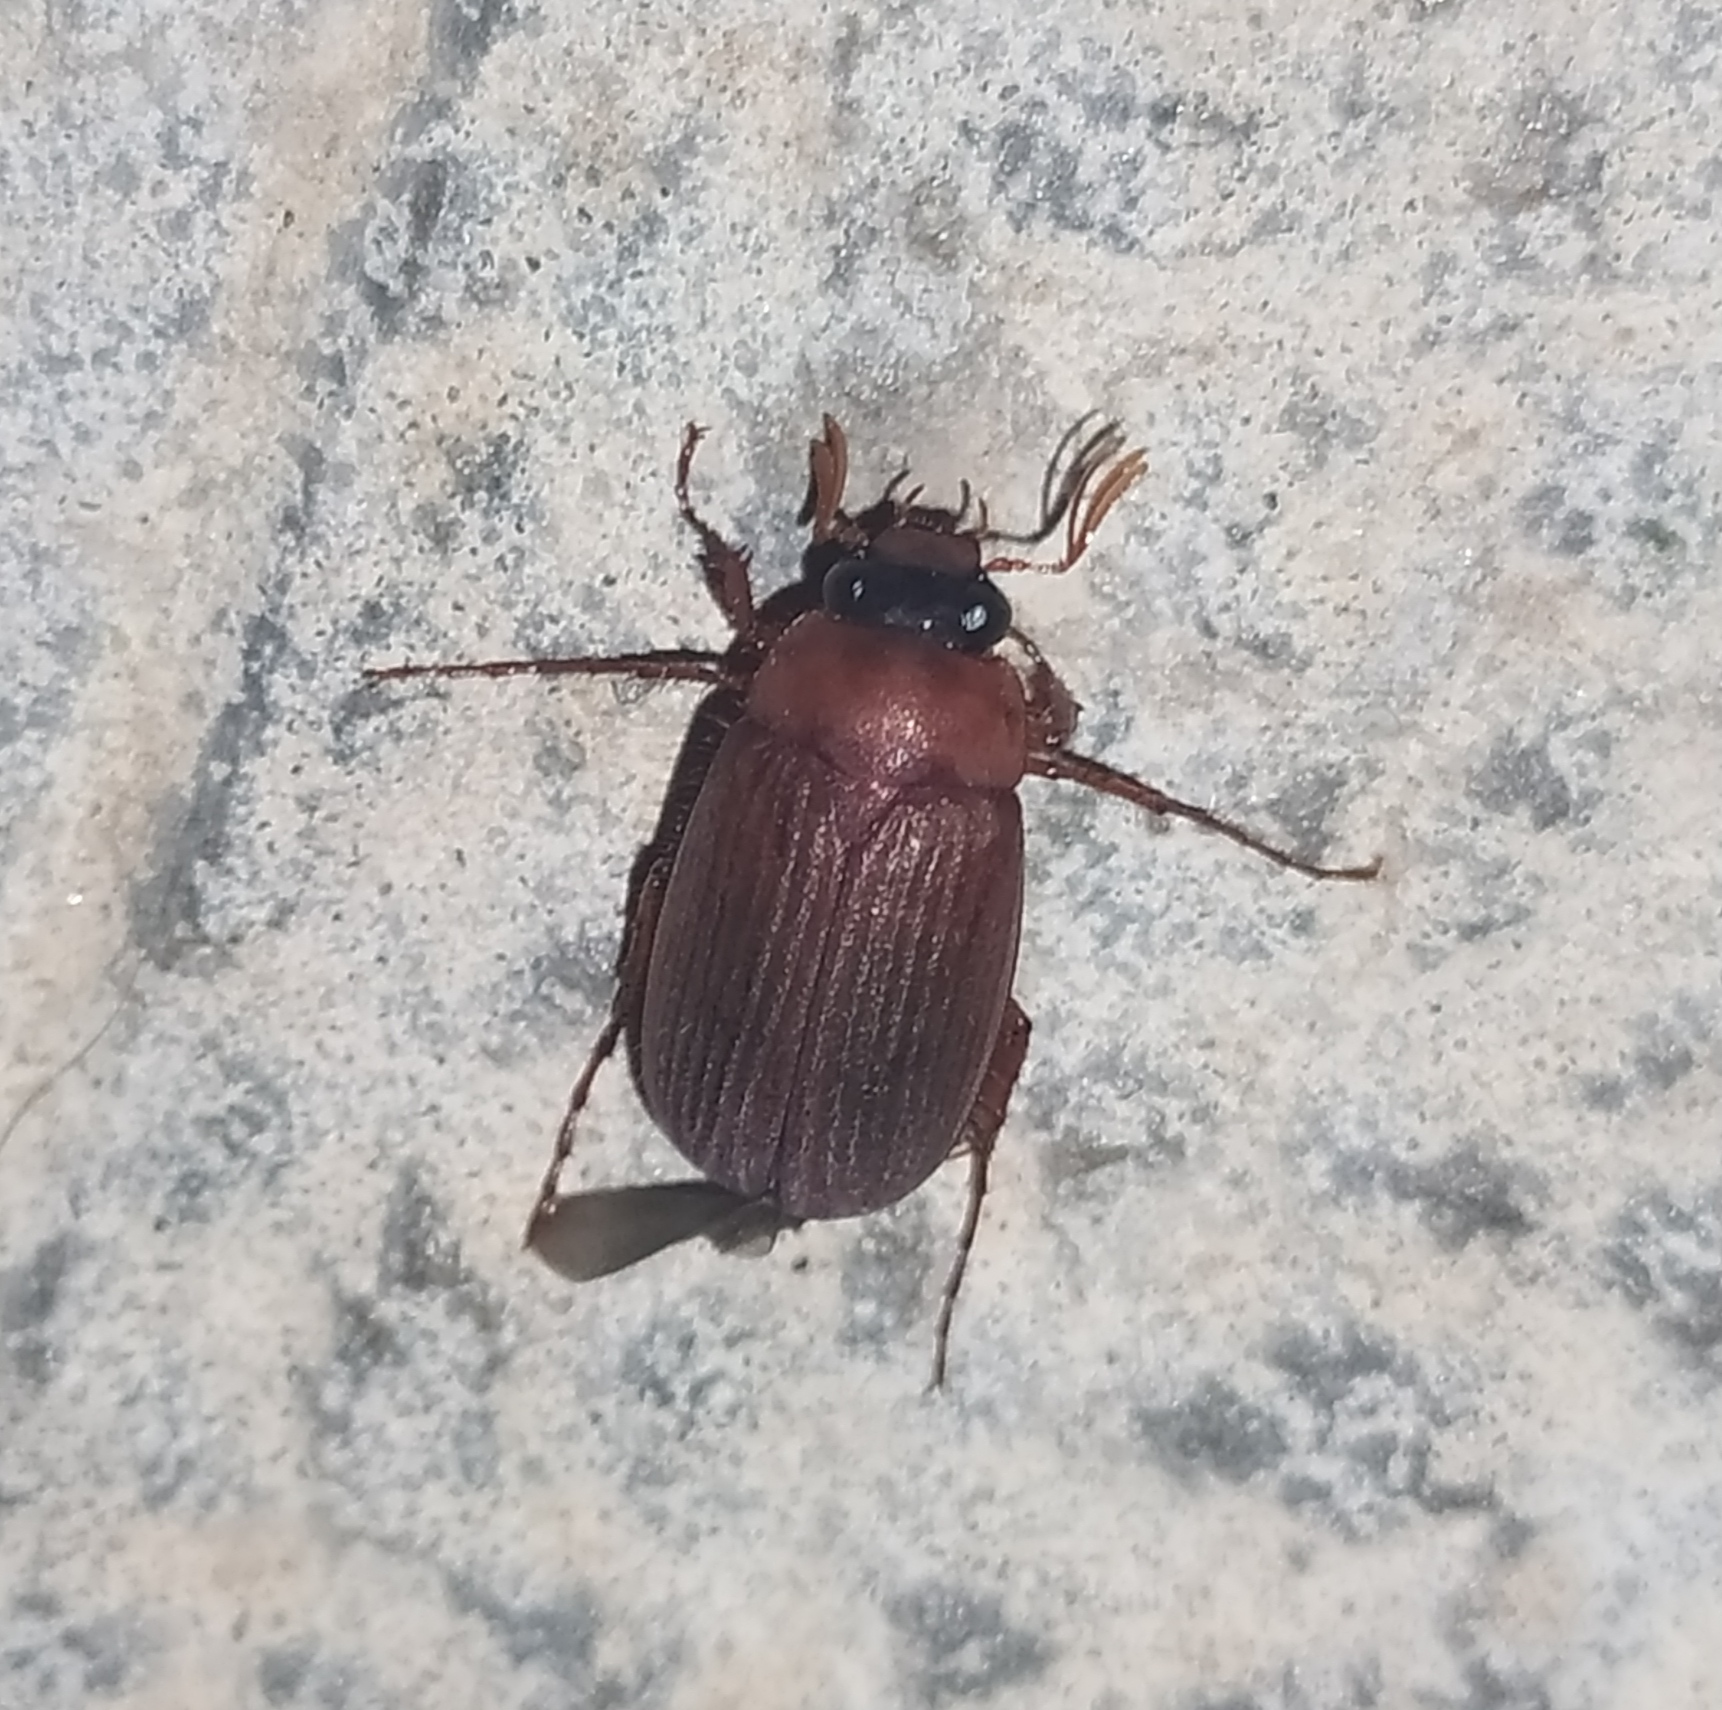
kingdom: Animalia
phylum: Arthropoda
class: Insecta
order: Coleoptera
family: Scarabaeidae
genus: Serica
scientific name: Serica brunnea
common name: Brown chafer
